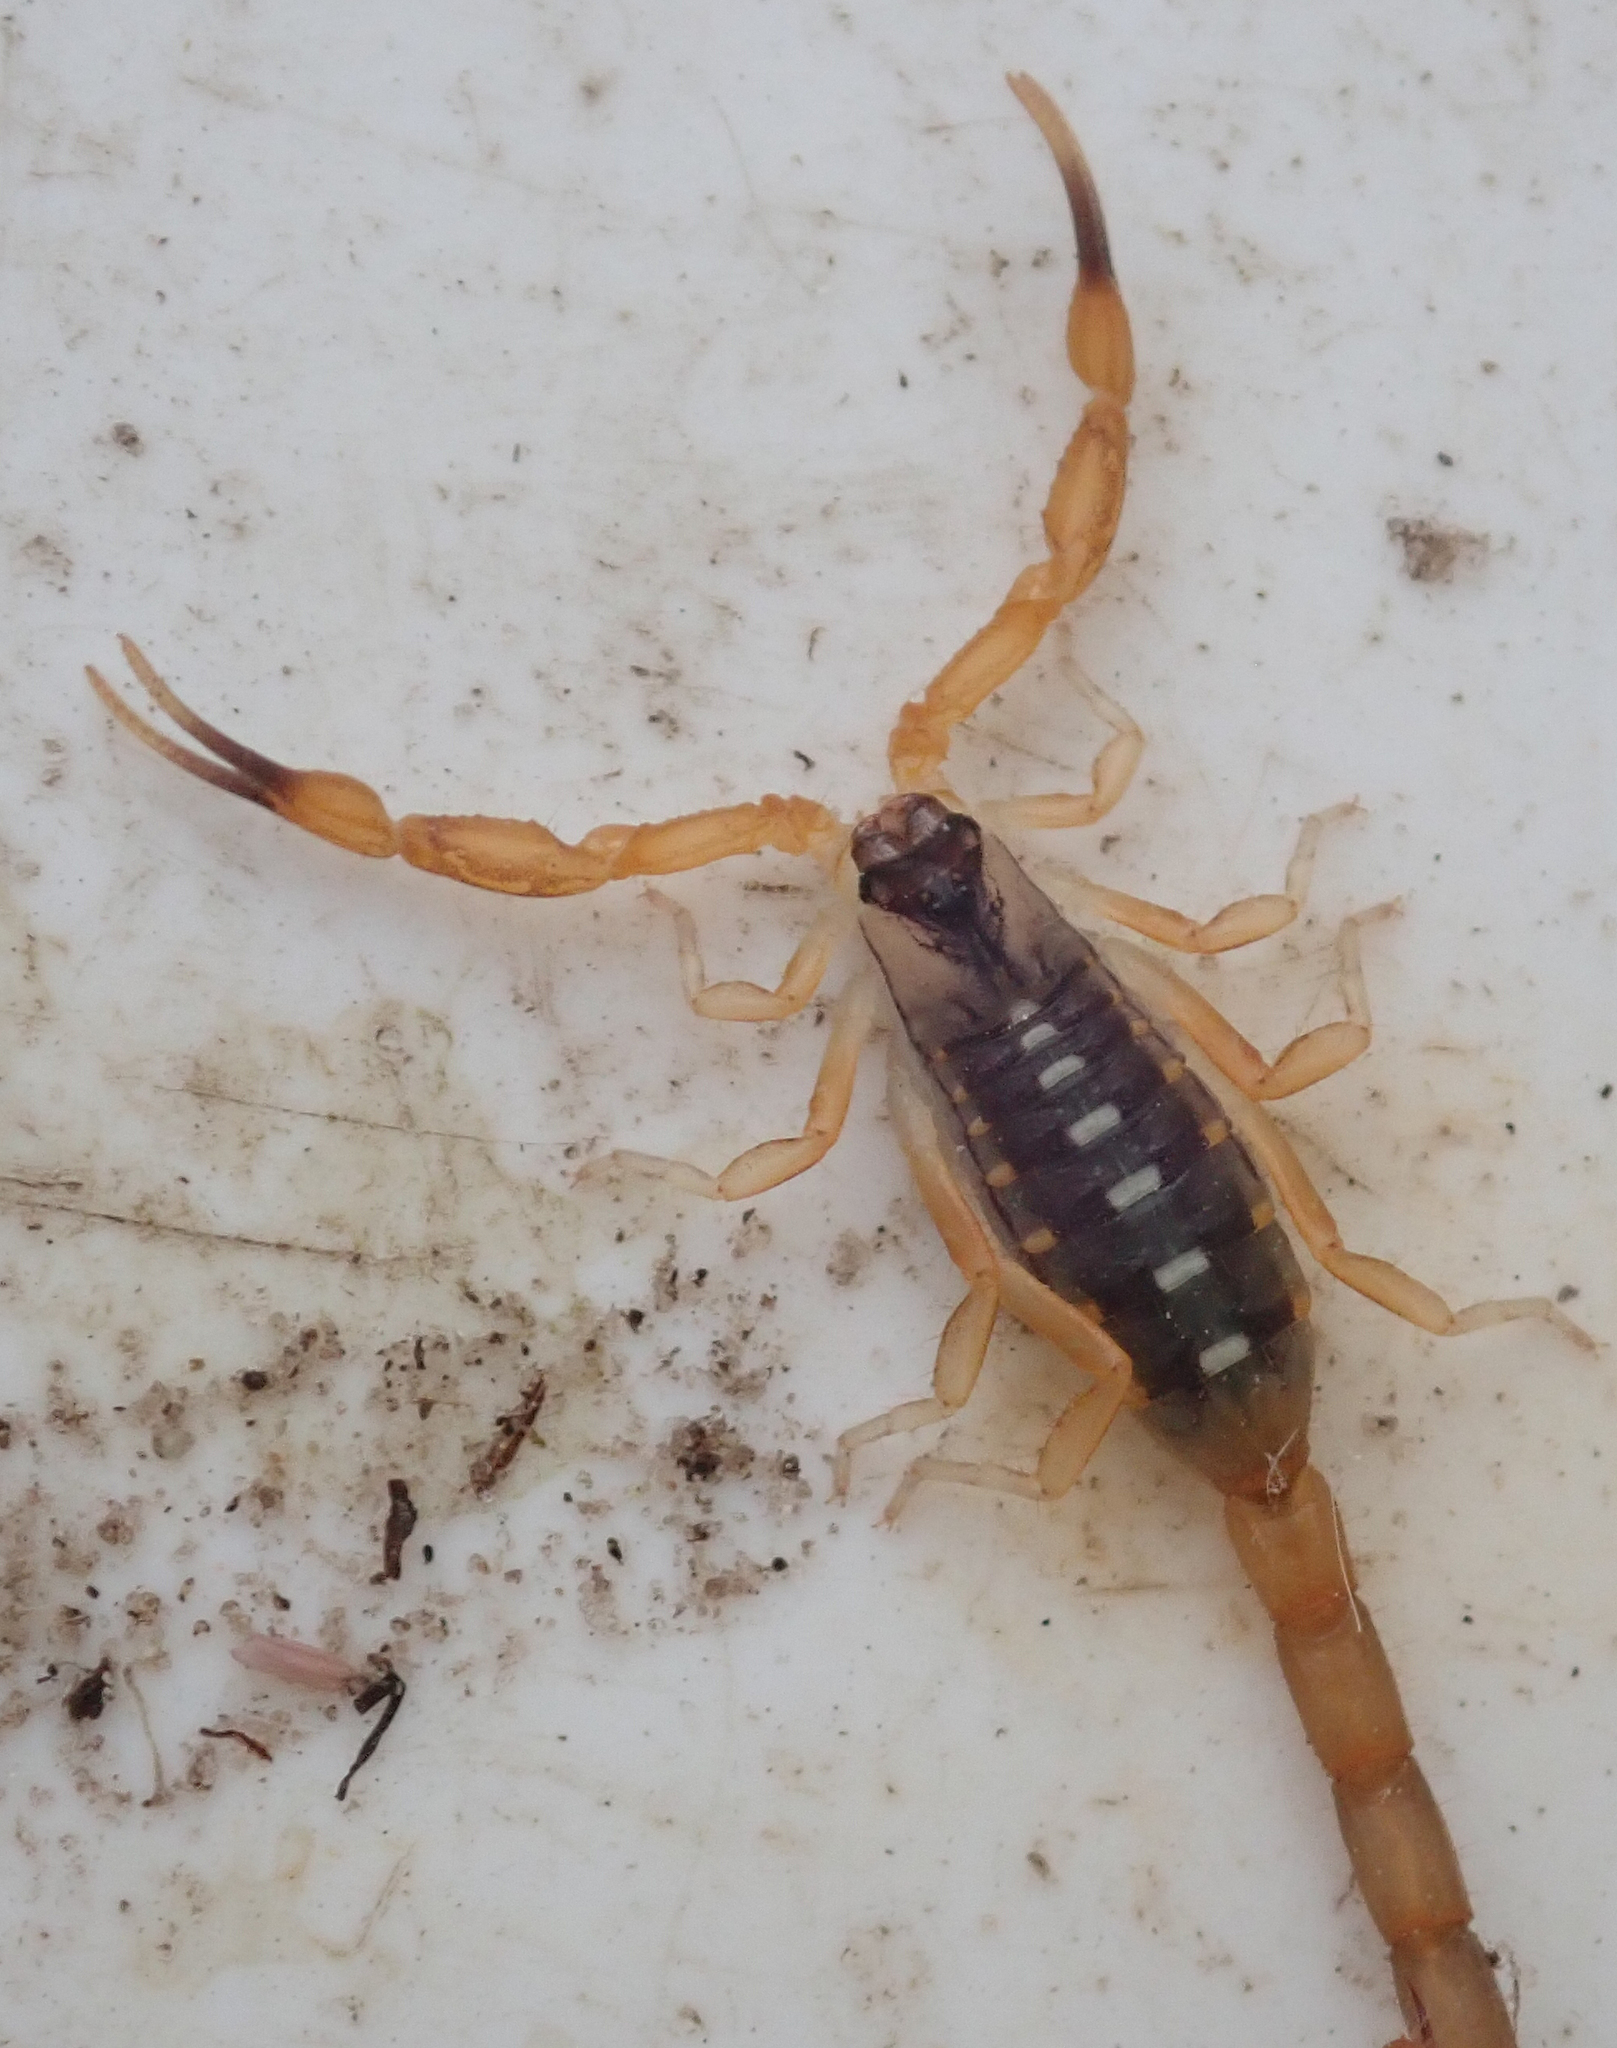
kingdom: Animalia
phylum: Arthropoda
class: Arachnida
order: Scorpiones
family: Buthidae
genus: Uroplectes
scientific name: Uroplectes vittatus
